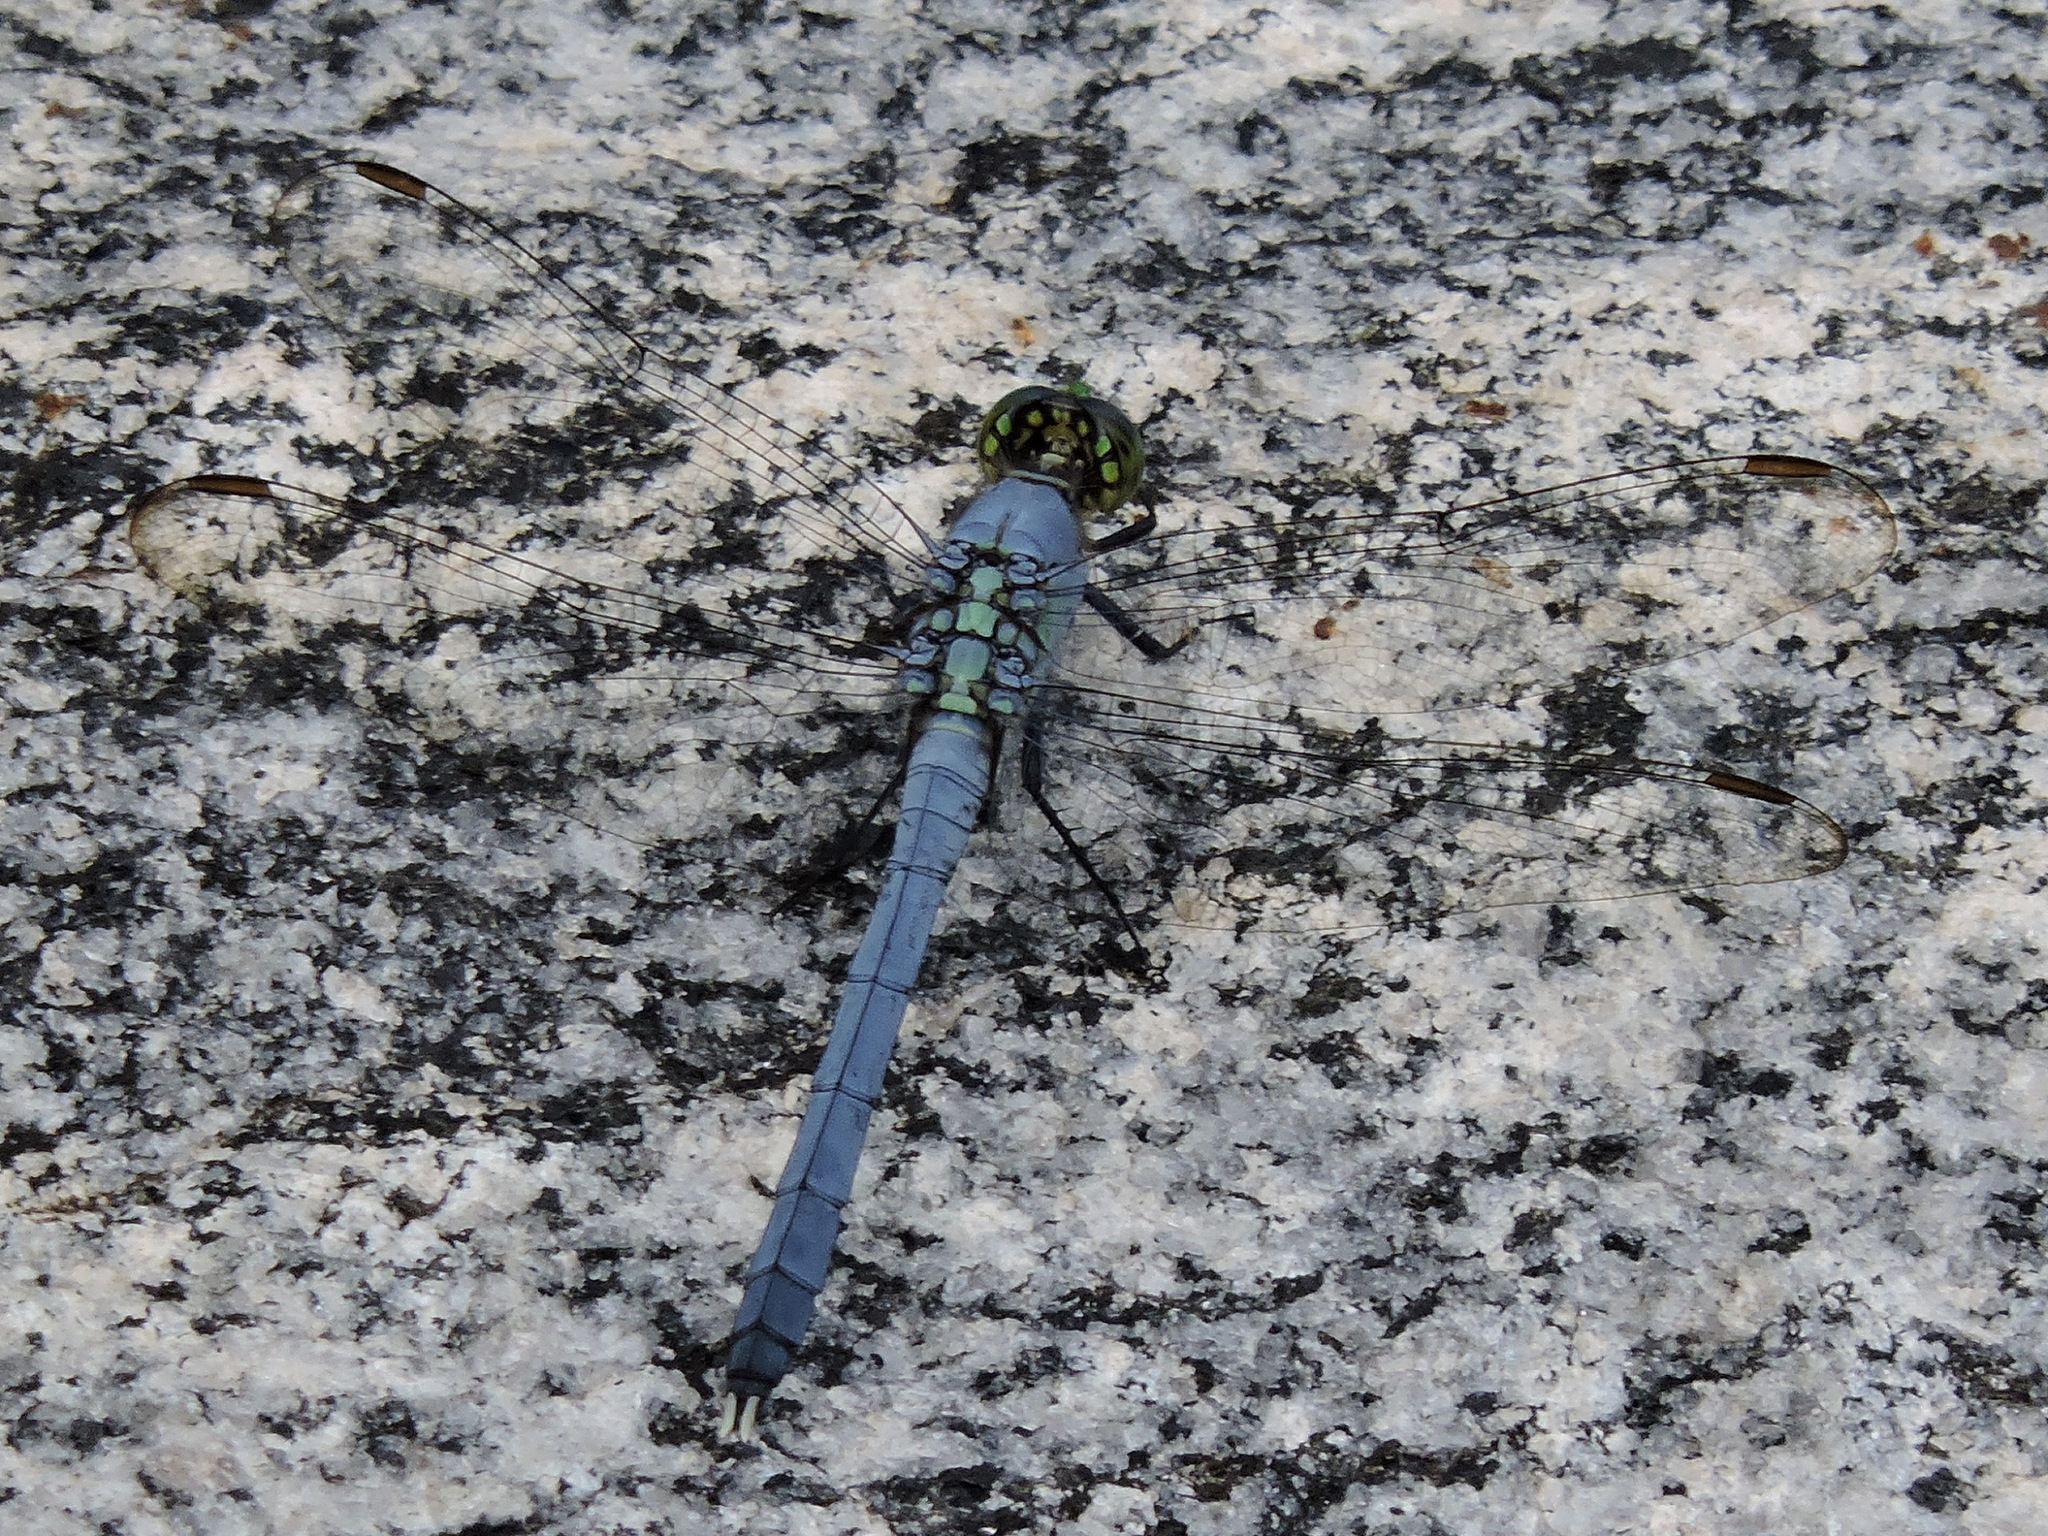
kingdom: Animalia
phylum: Arthropoda
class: Insecta
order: Odonata
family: Libellulidae
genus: Erythemis
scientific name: Erythemis simplicicollis
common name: Eastern pondhawk
